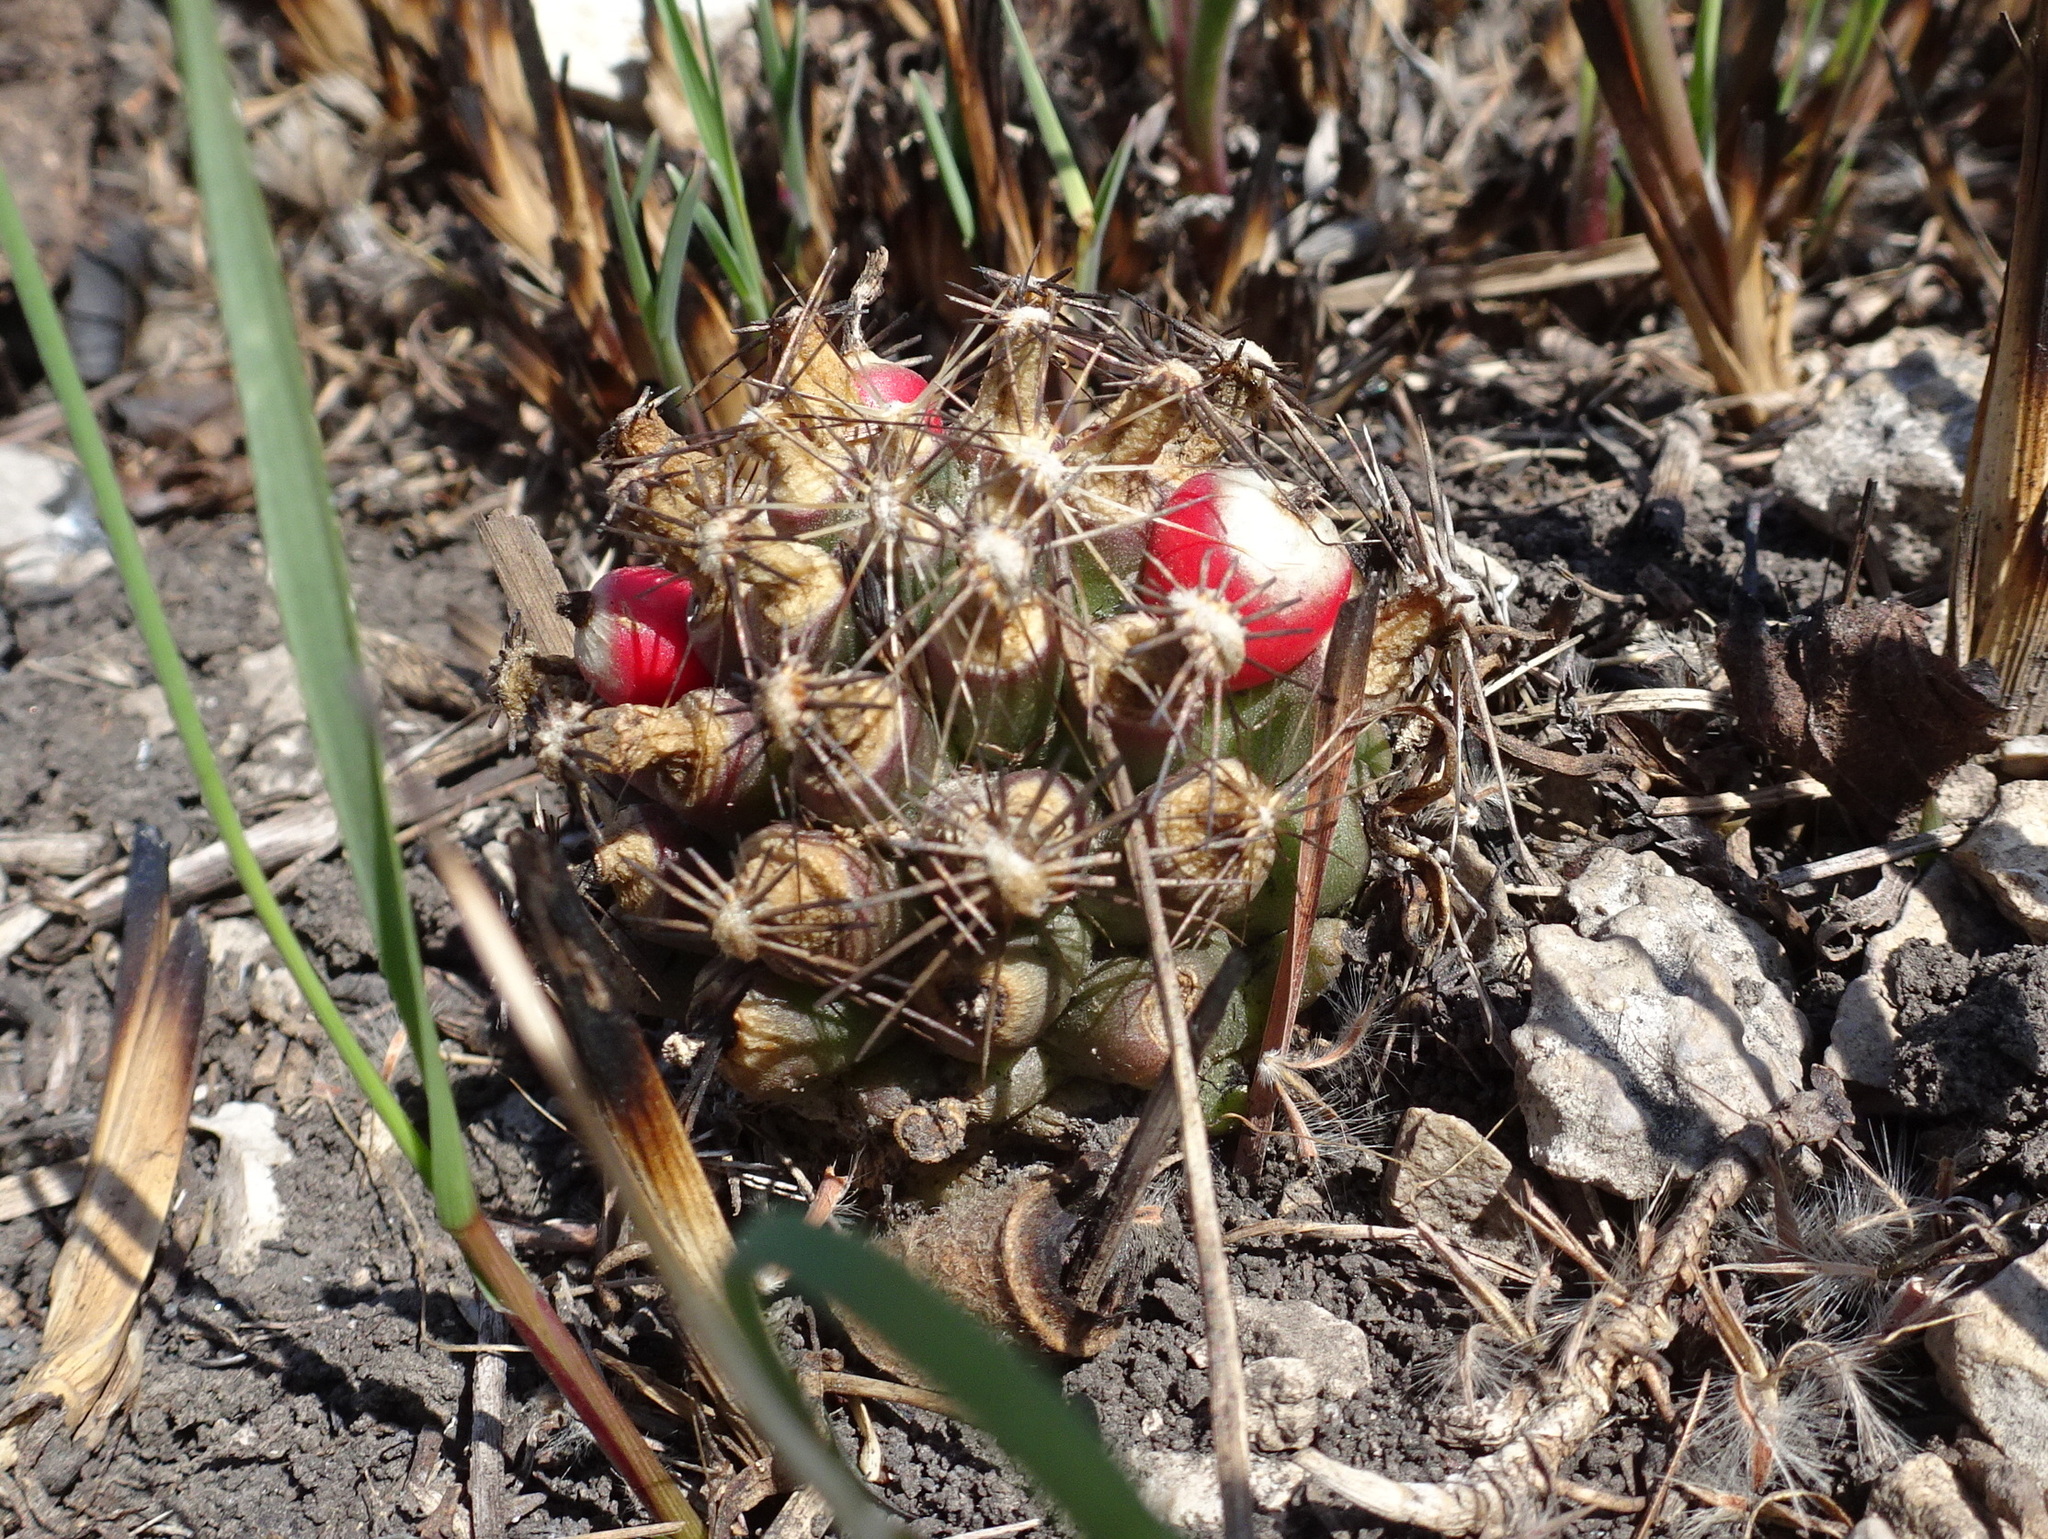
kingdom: Plantae
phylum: Tracheophyta
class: Magnoliopsida
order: Caryophyllales
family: Cactaceae
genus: Pelecyphora
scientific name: Pelecyphora missouriensis
